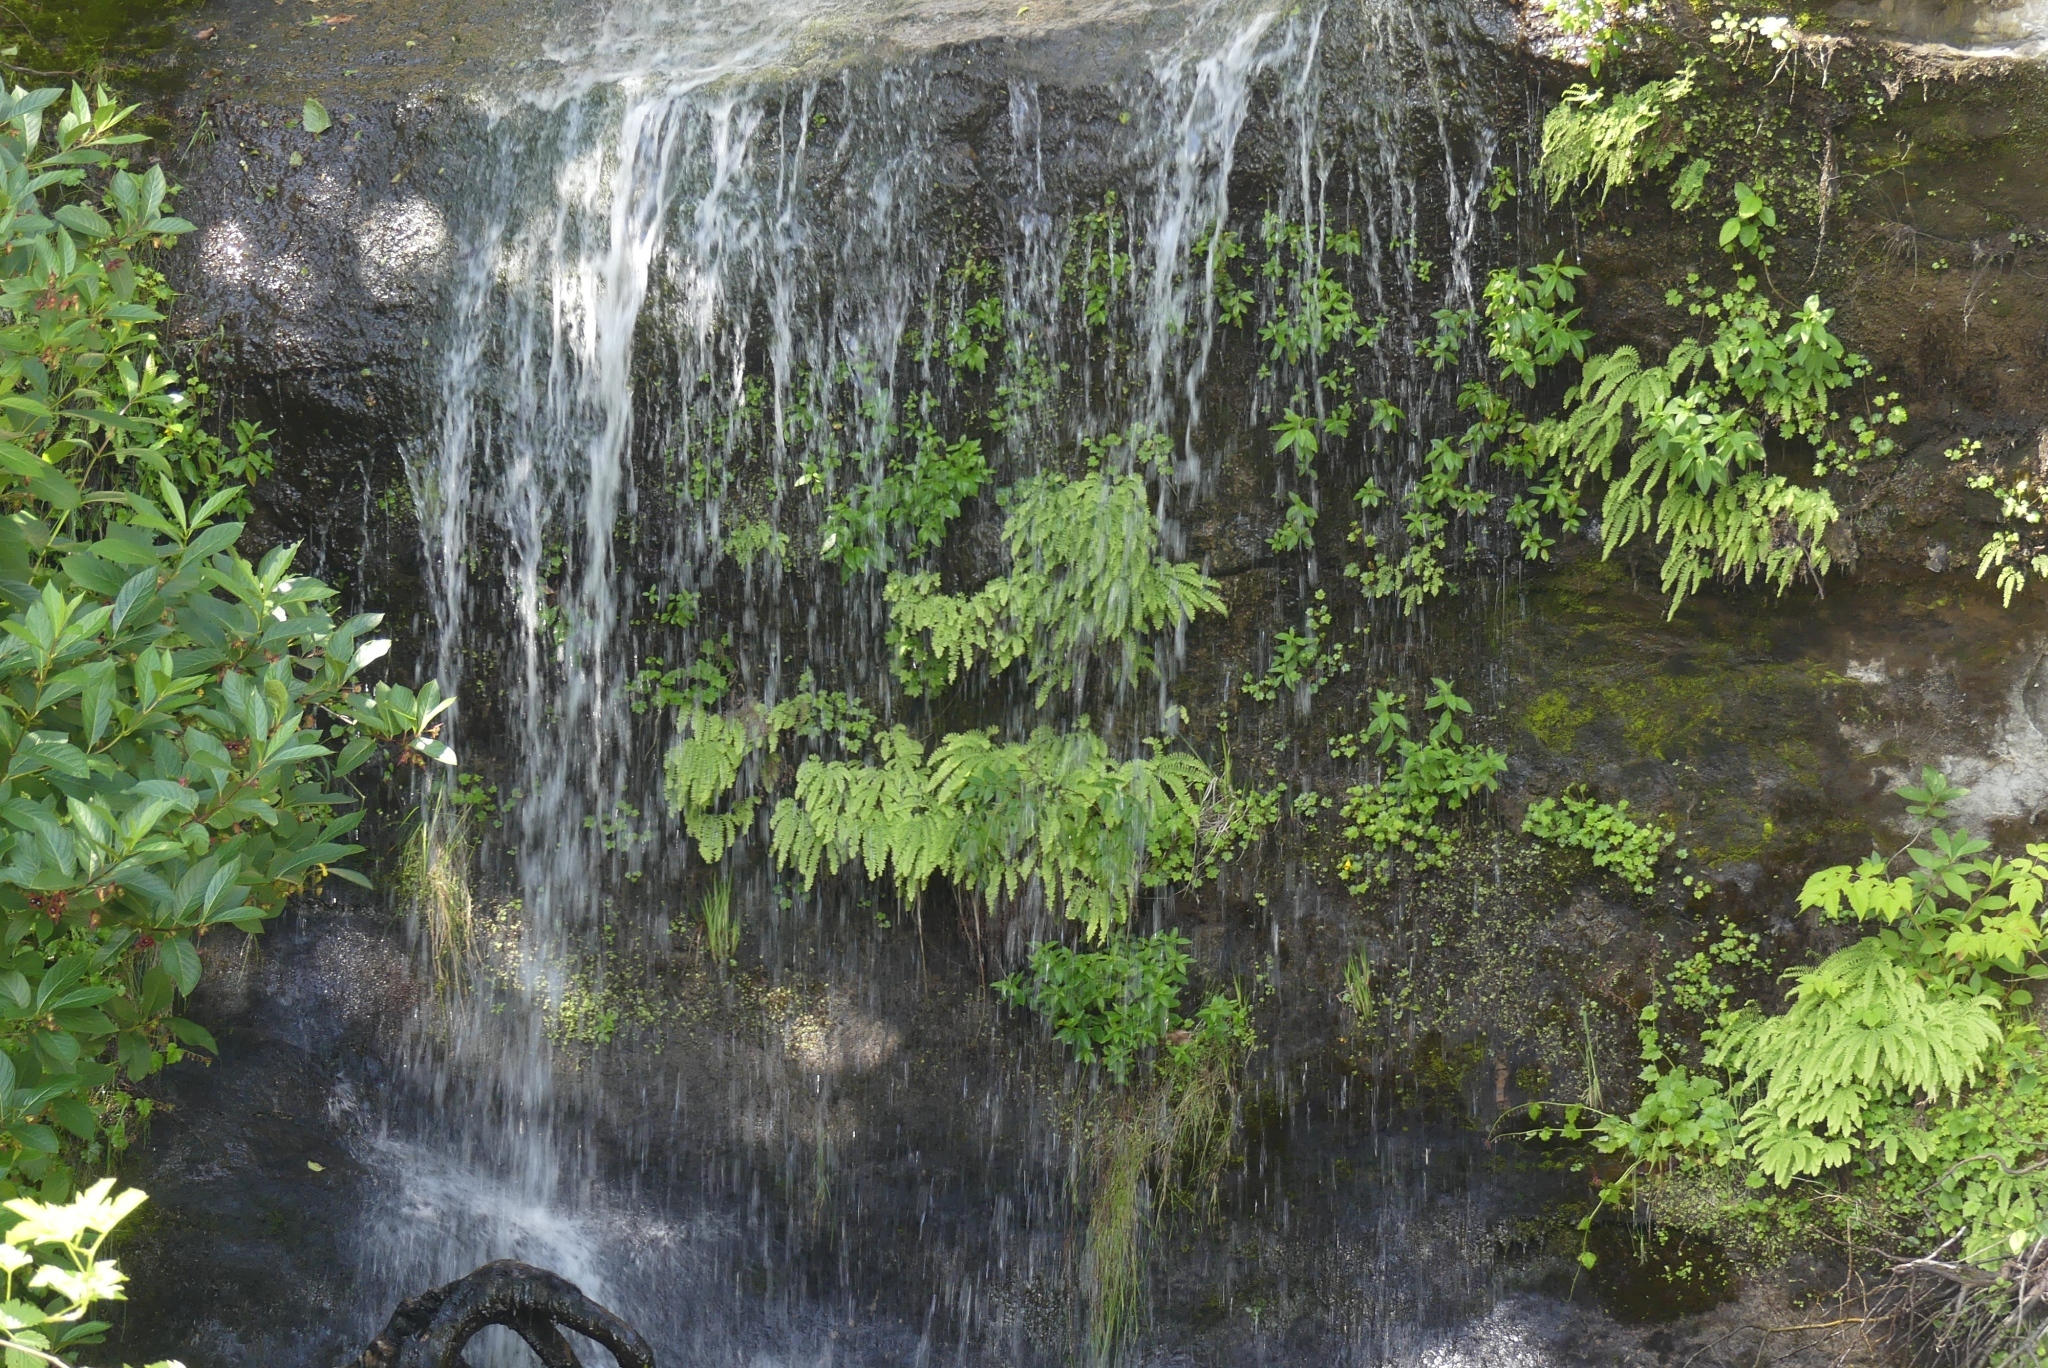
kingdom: Plantae
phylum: Tracheophyta
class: Polypodiopsida
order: Polypodiales
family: Pteridaceae
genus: Adiantum
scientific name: Adiantum aleuticum
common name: Aleutian maidenhair fern
